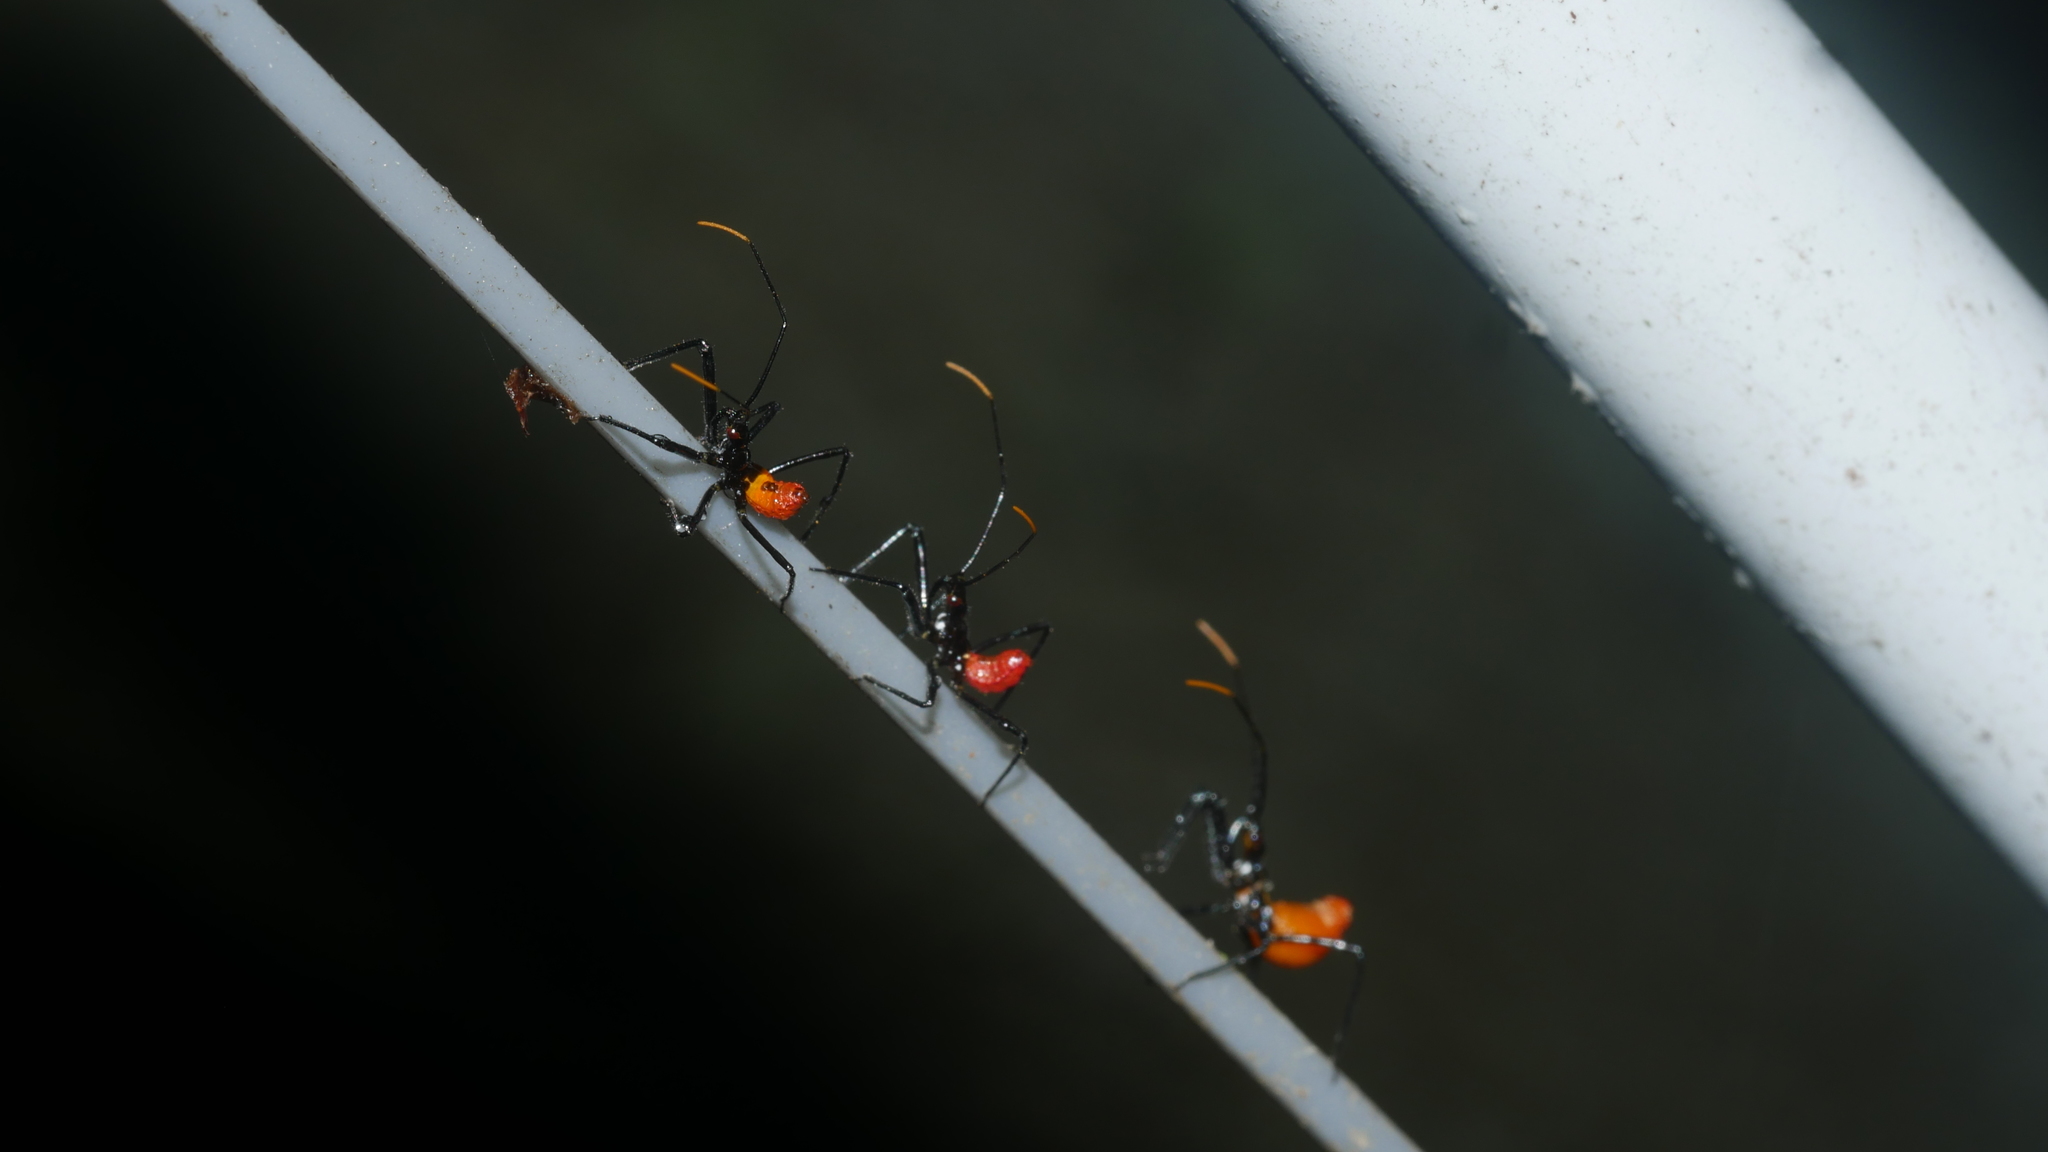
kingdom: Animalia
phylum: Arthropoda
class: Insecta
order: Hemiptera
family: Reduviidae
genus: Arilus
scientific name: Arilus cristatus
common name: North american wheel bug
